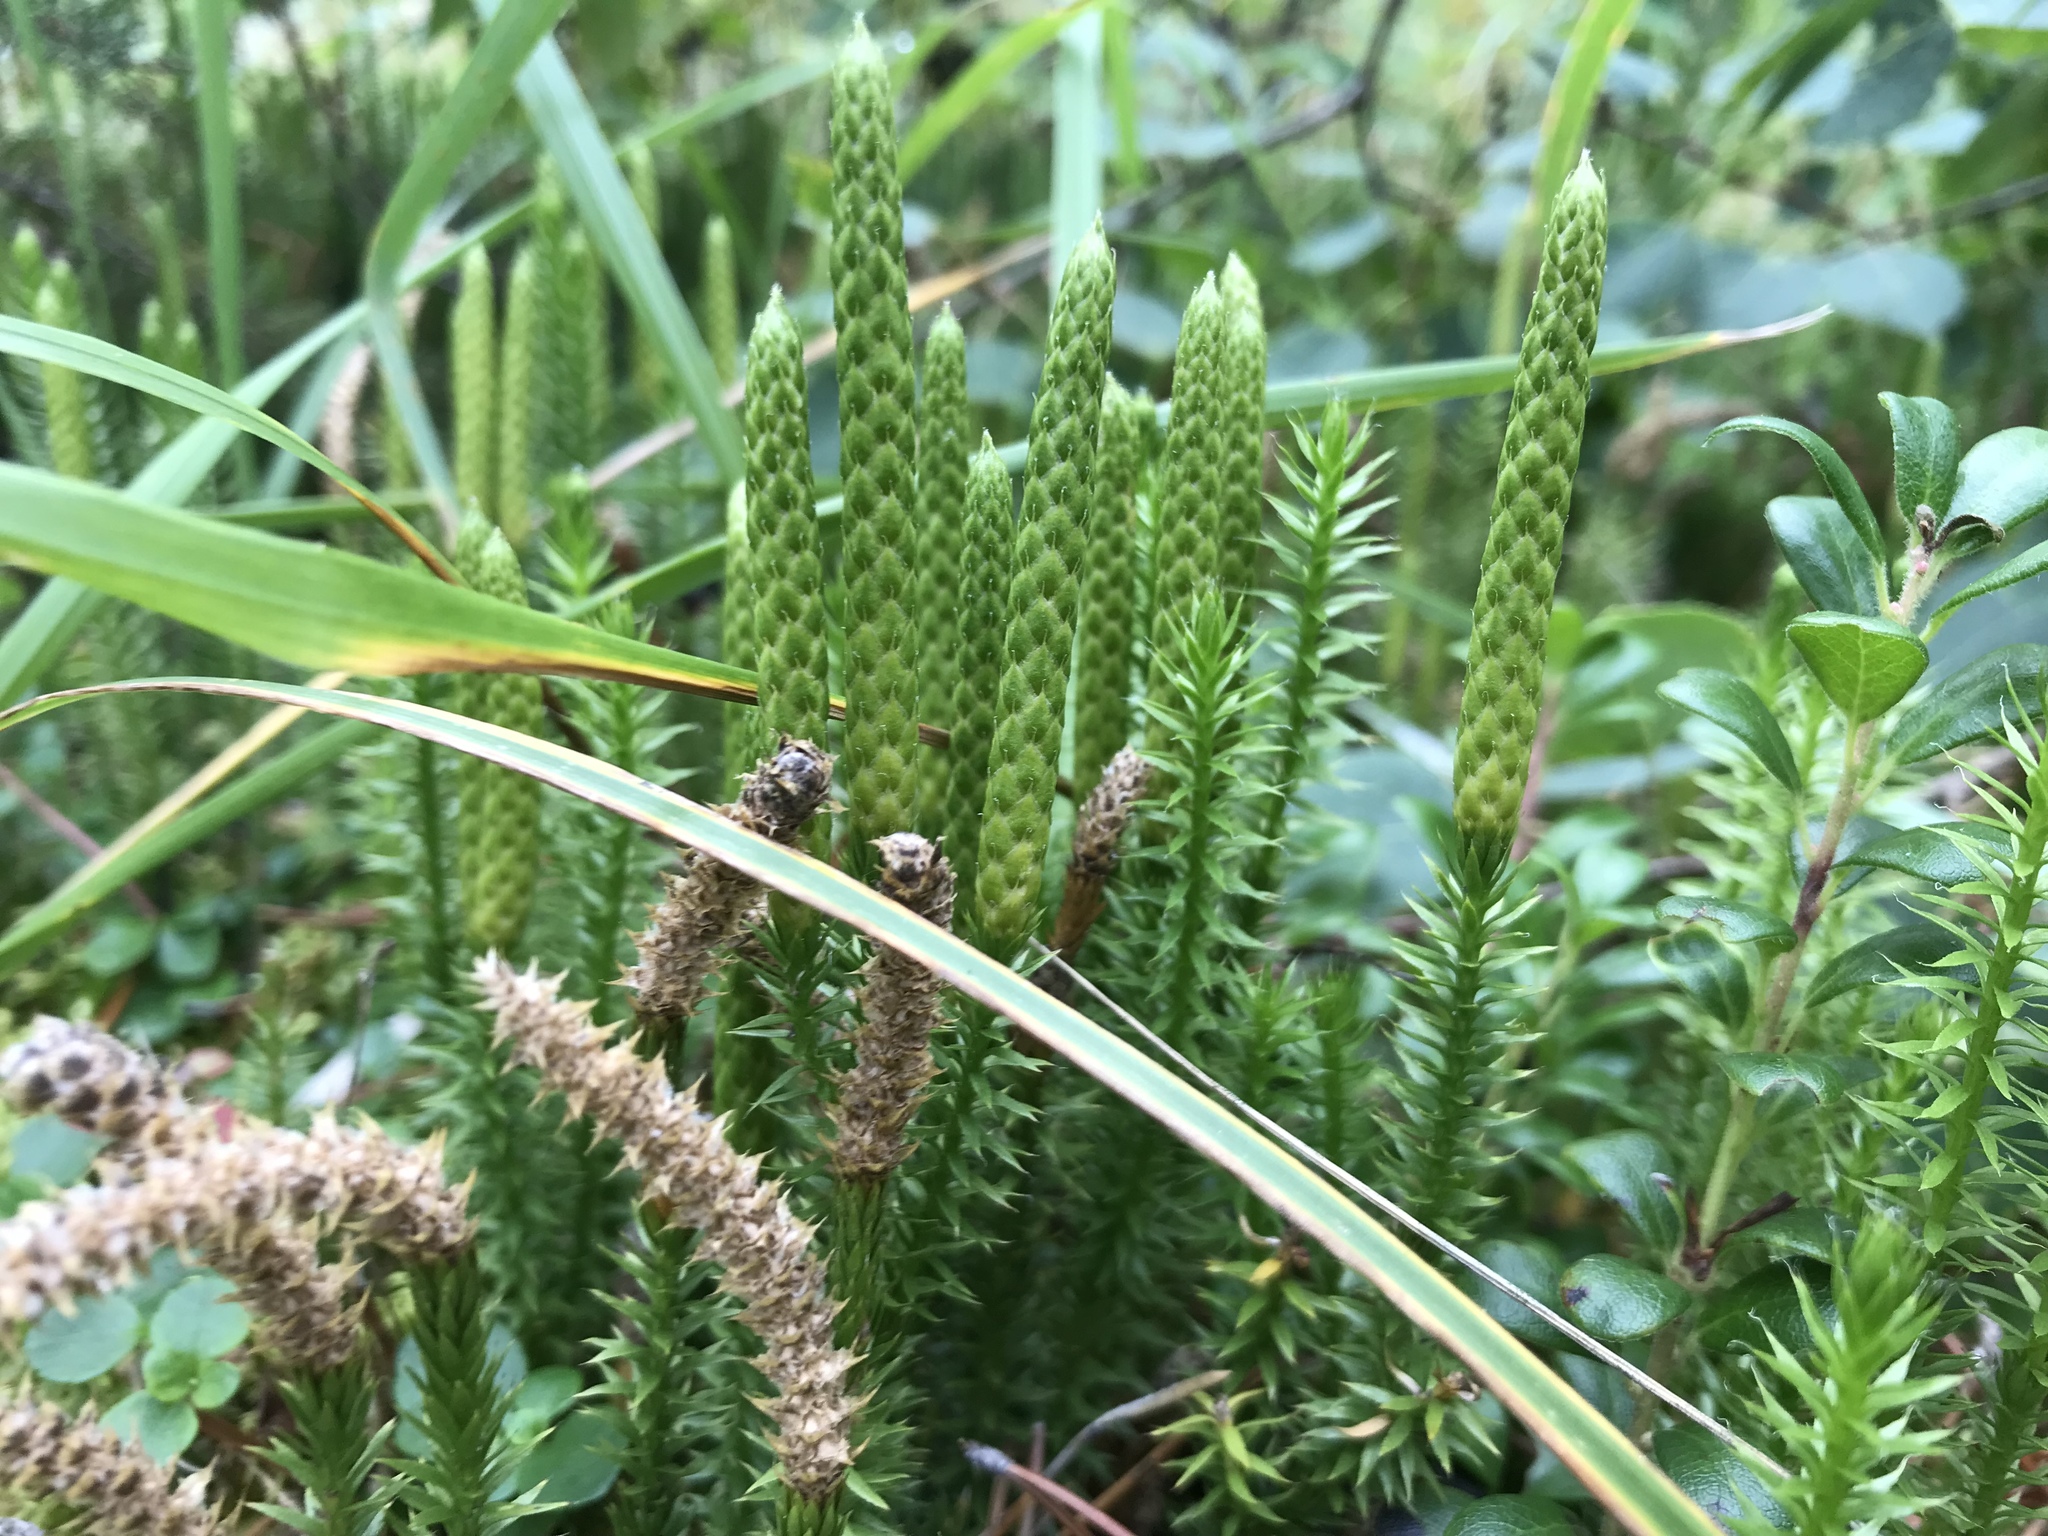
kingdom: Plantae
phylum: Tracheophyta
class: Lycopodiopsida
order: Lycopodiales
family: Lycopodiaceae
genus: Spinulum
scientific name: Spinulum annotinum
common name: Interrupted club-moss
